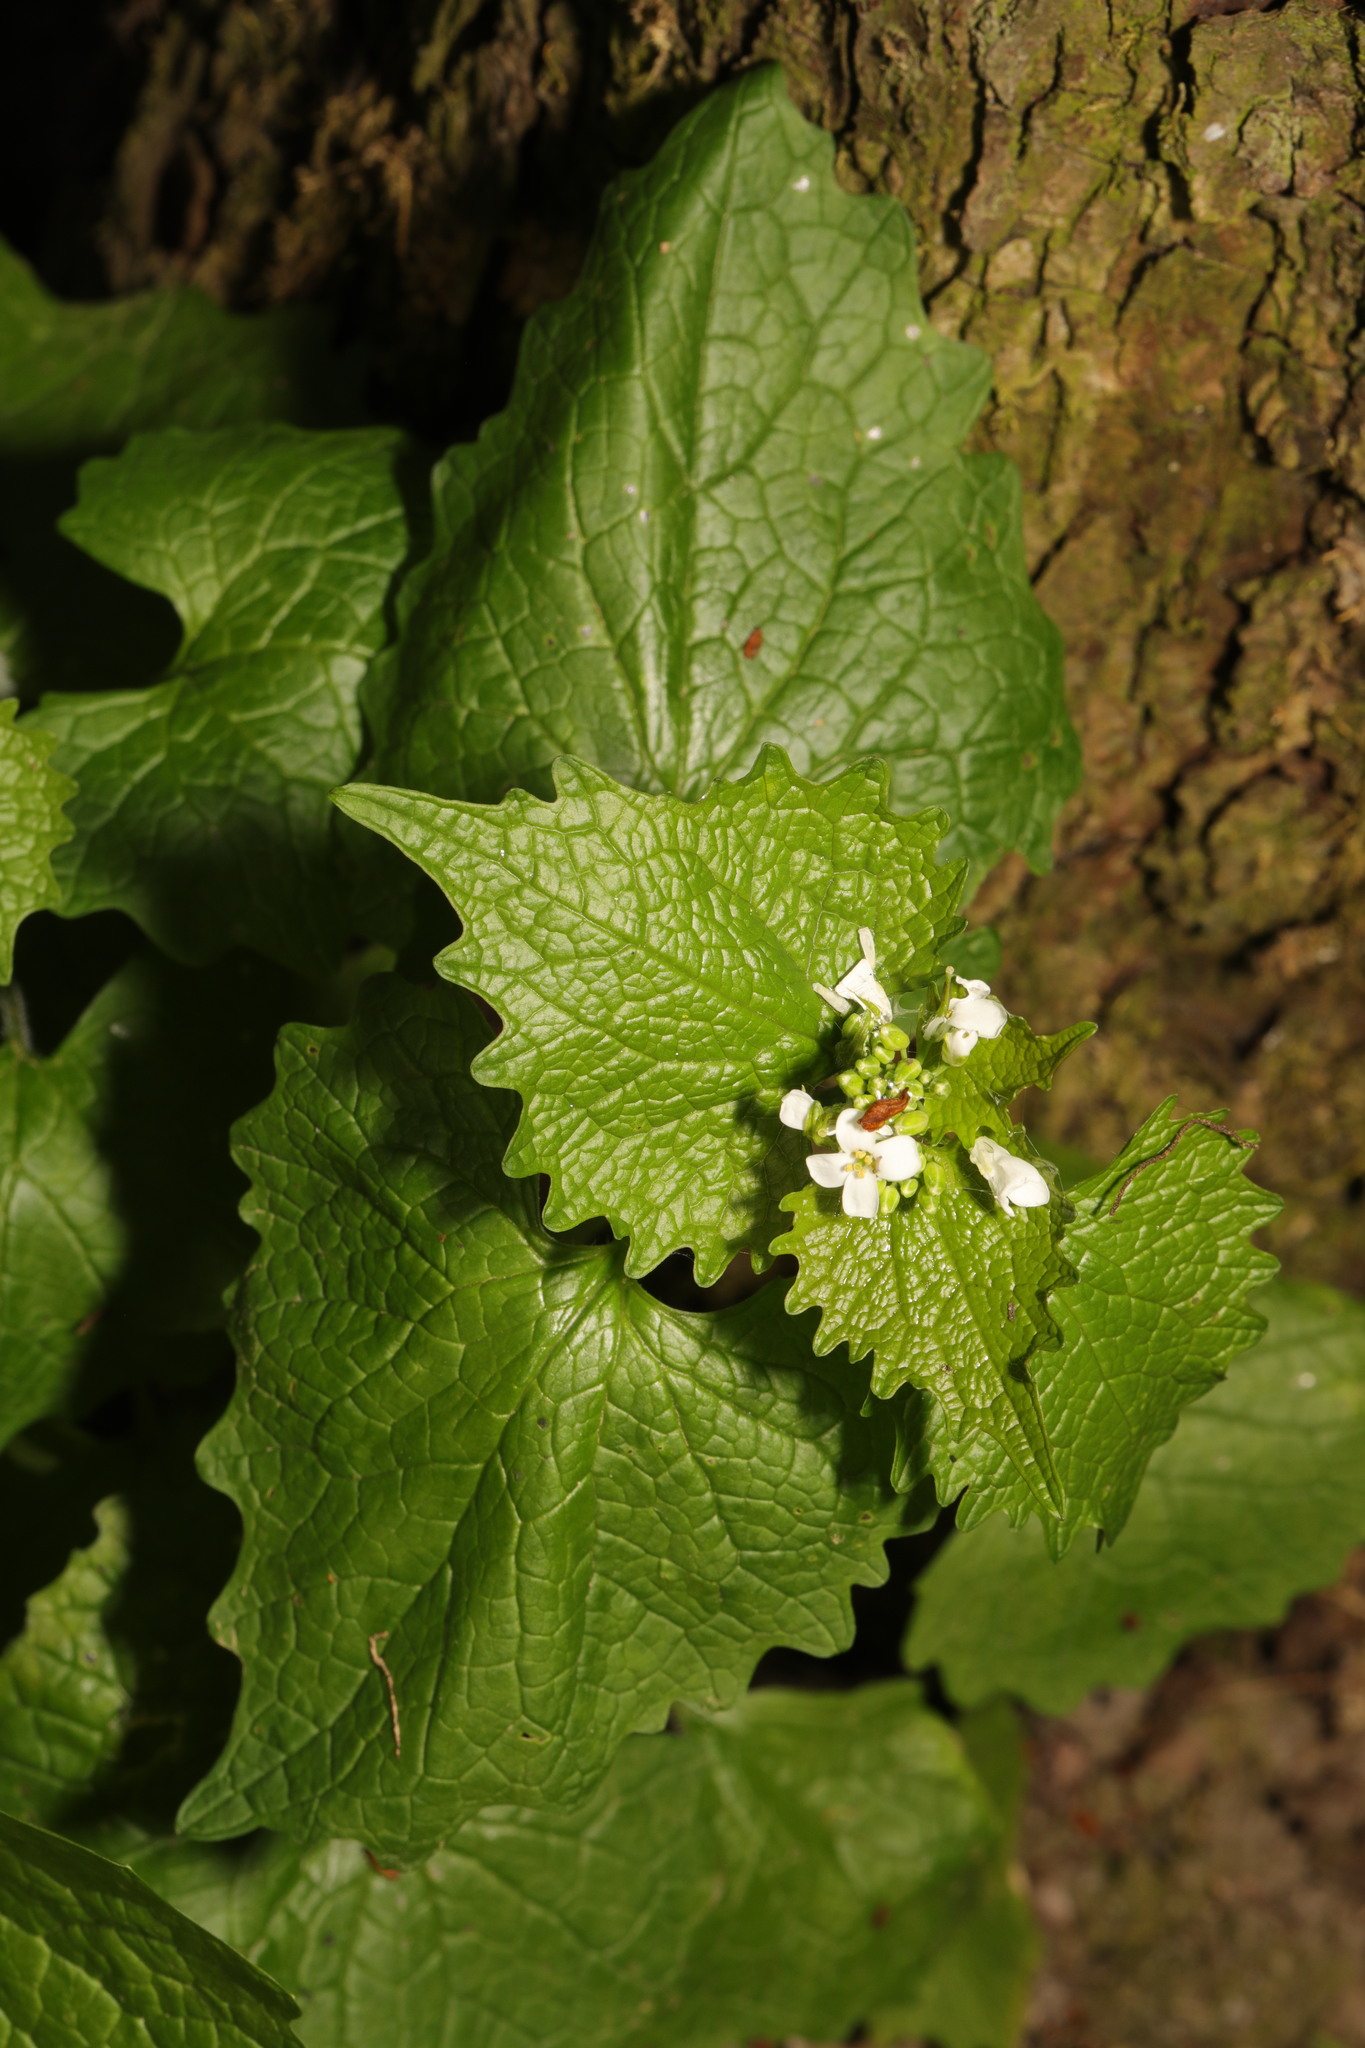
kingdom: Plantae
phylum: Tracheophyta
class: Magnoliopsida
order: Brassicales
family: Brassicaceae
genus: Alliaria
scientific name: Alliaria petiolata
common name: Garlic mustard
